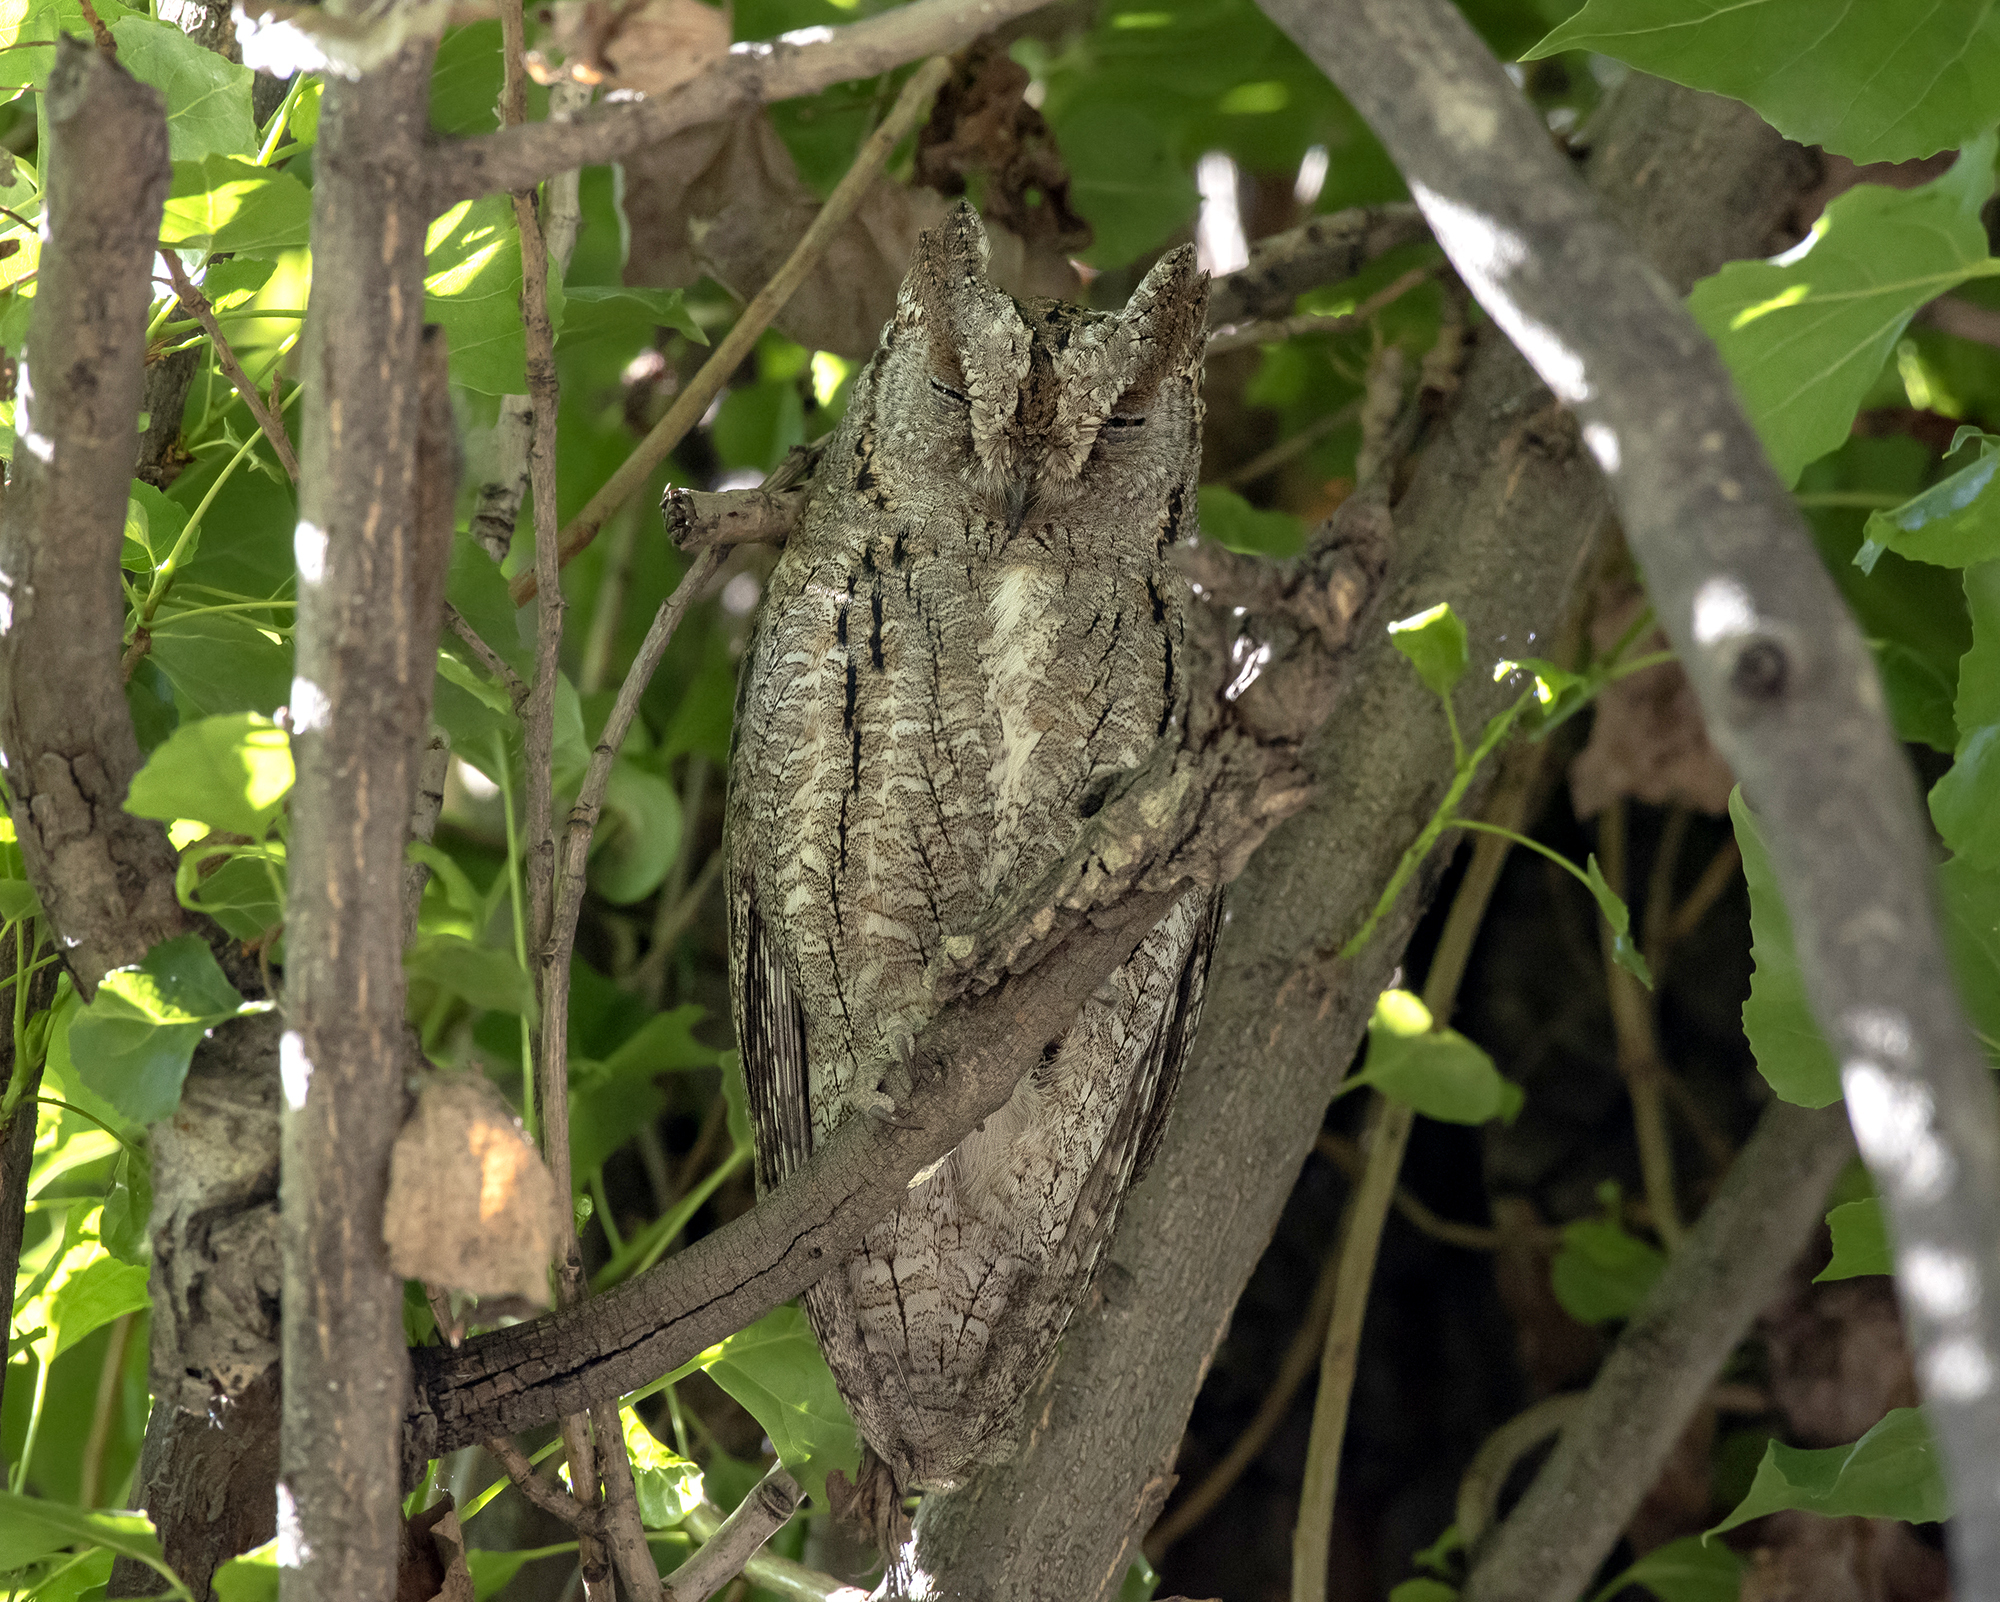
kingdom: Animalia
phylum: Chordata
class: Aves
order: Strigiformes
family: Strigidae
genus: Otus
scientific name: Otus scops
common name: Eurasian scops owl
